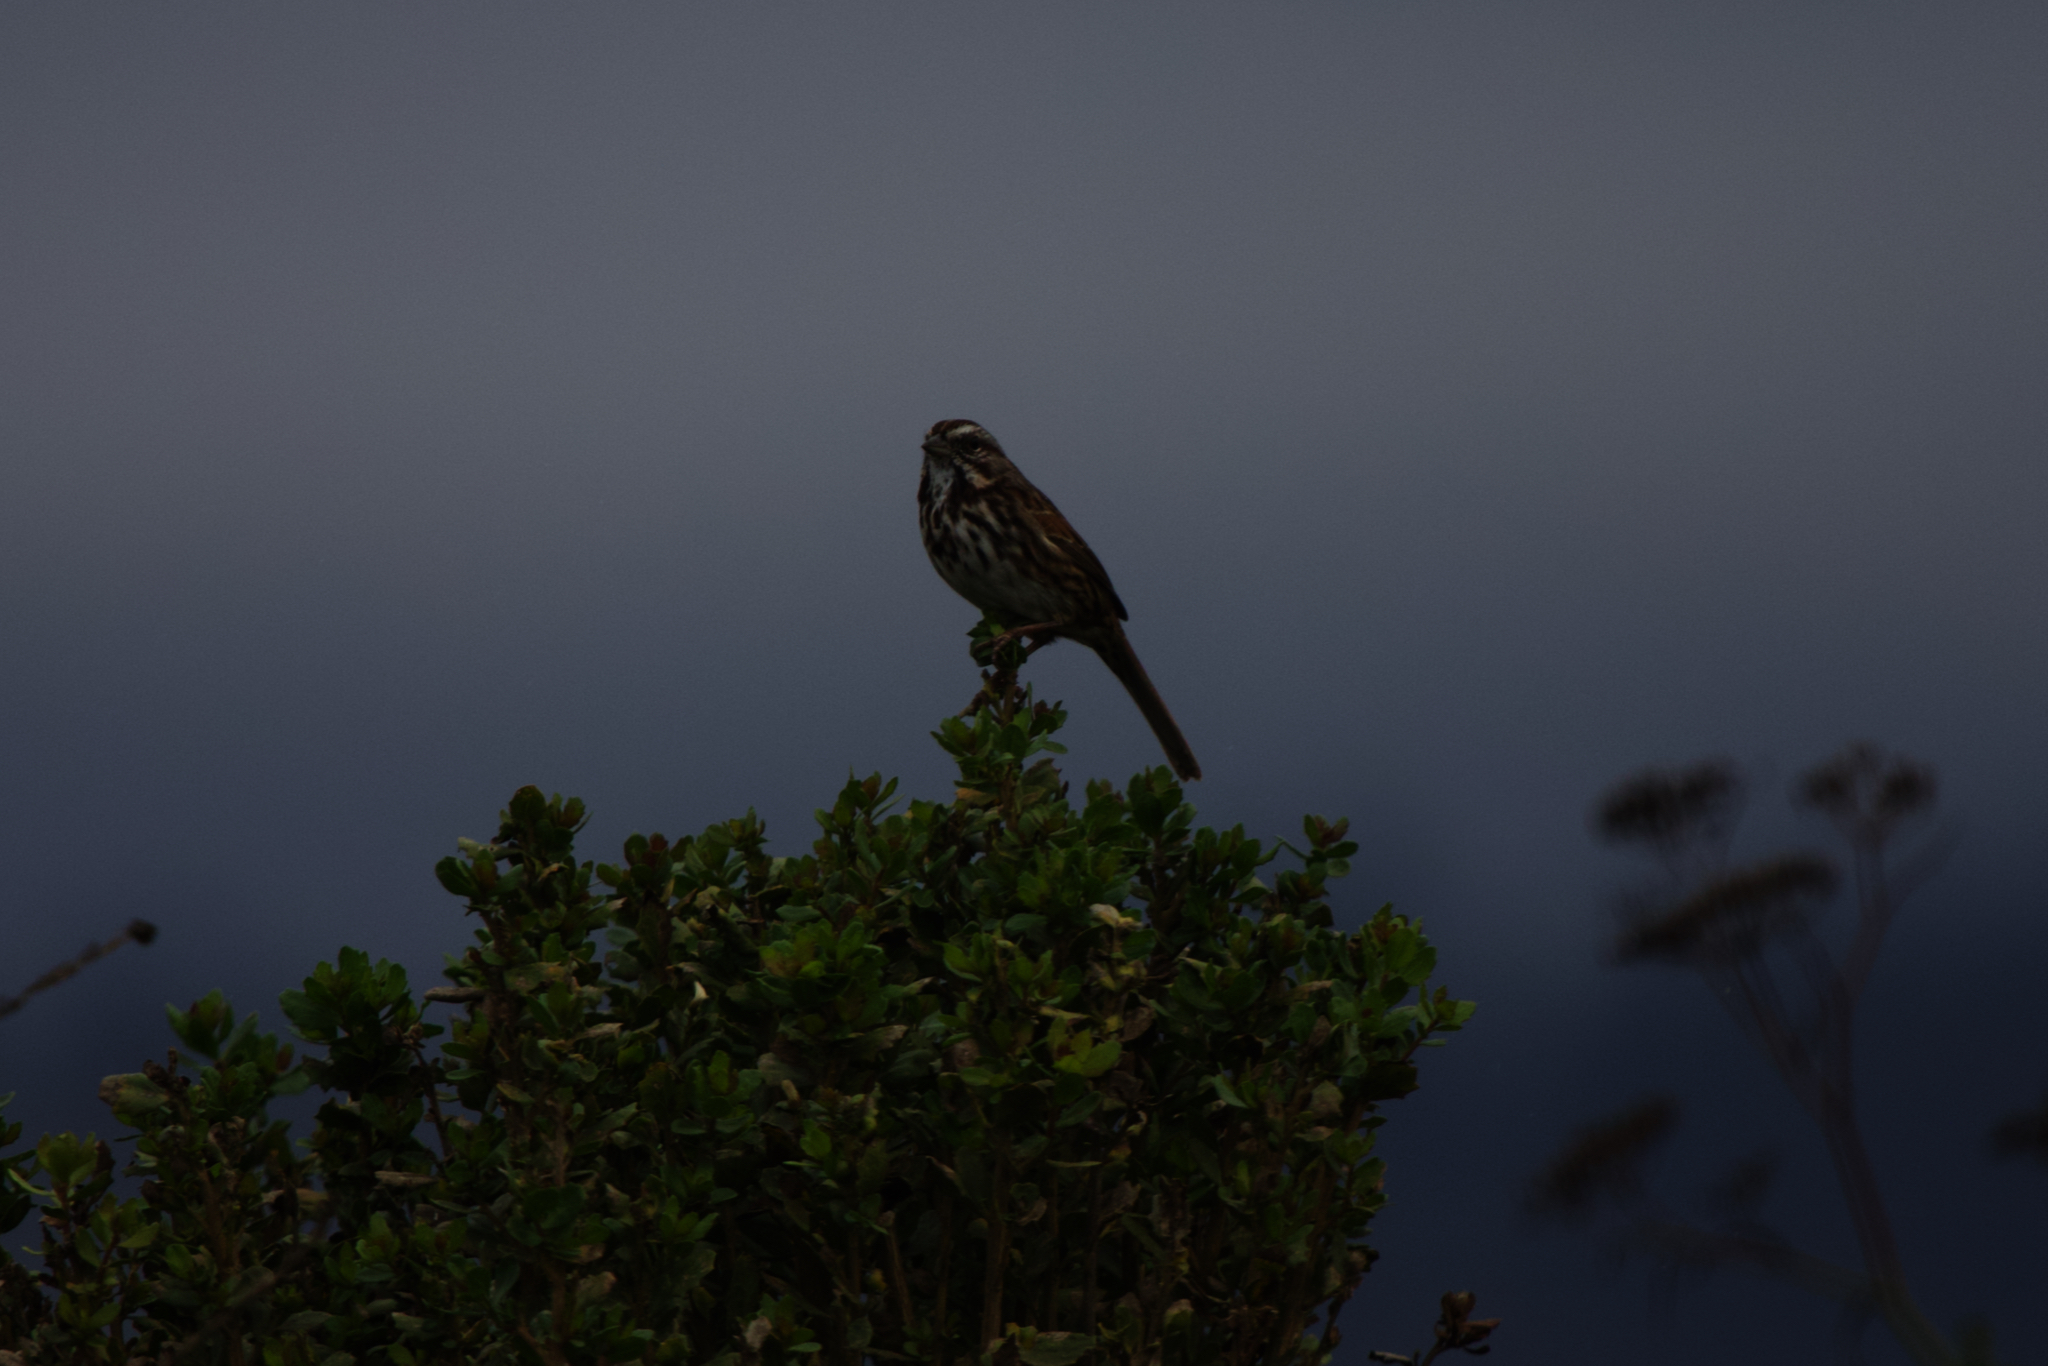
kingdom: Animalia
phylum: Chordata
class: Aves
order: Passeriformes
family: Passerellidae
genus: Melospiza
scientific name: Melospiza melodia
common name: Song sparrow
